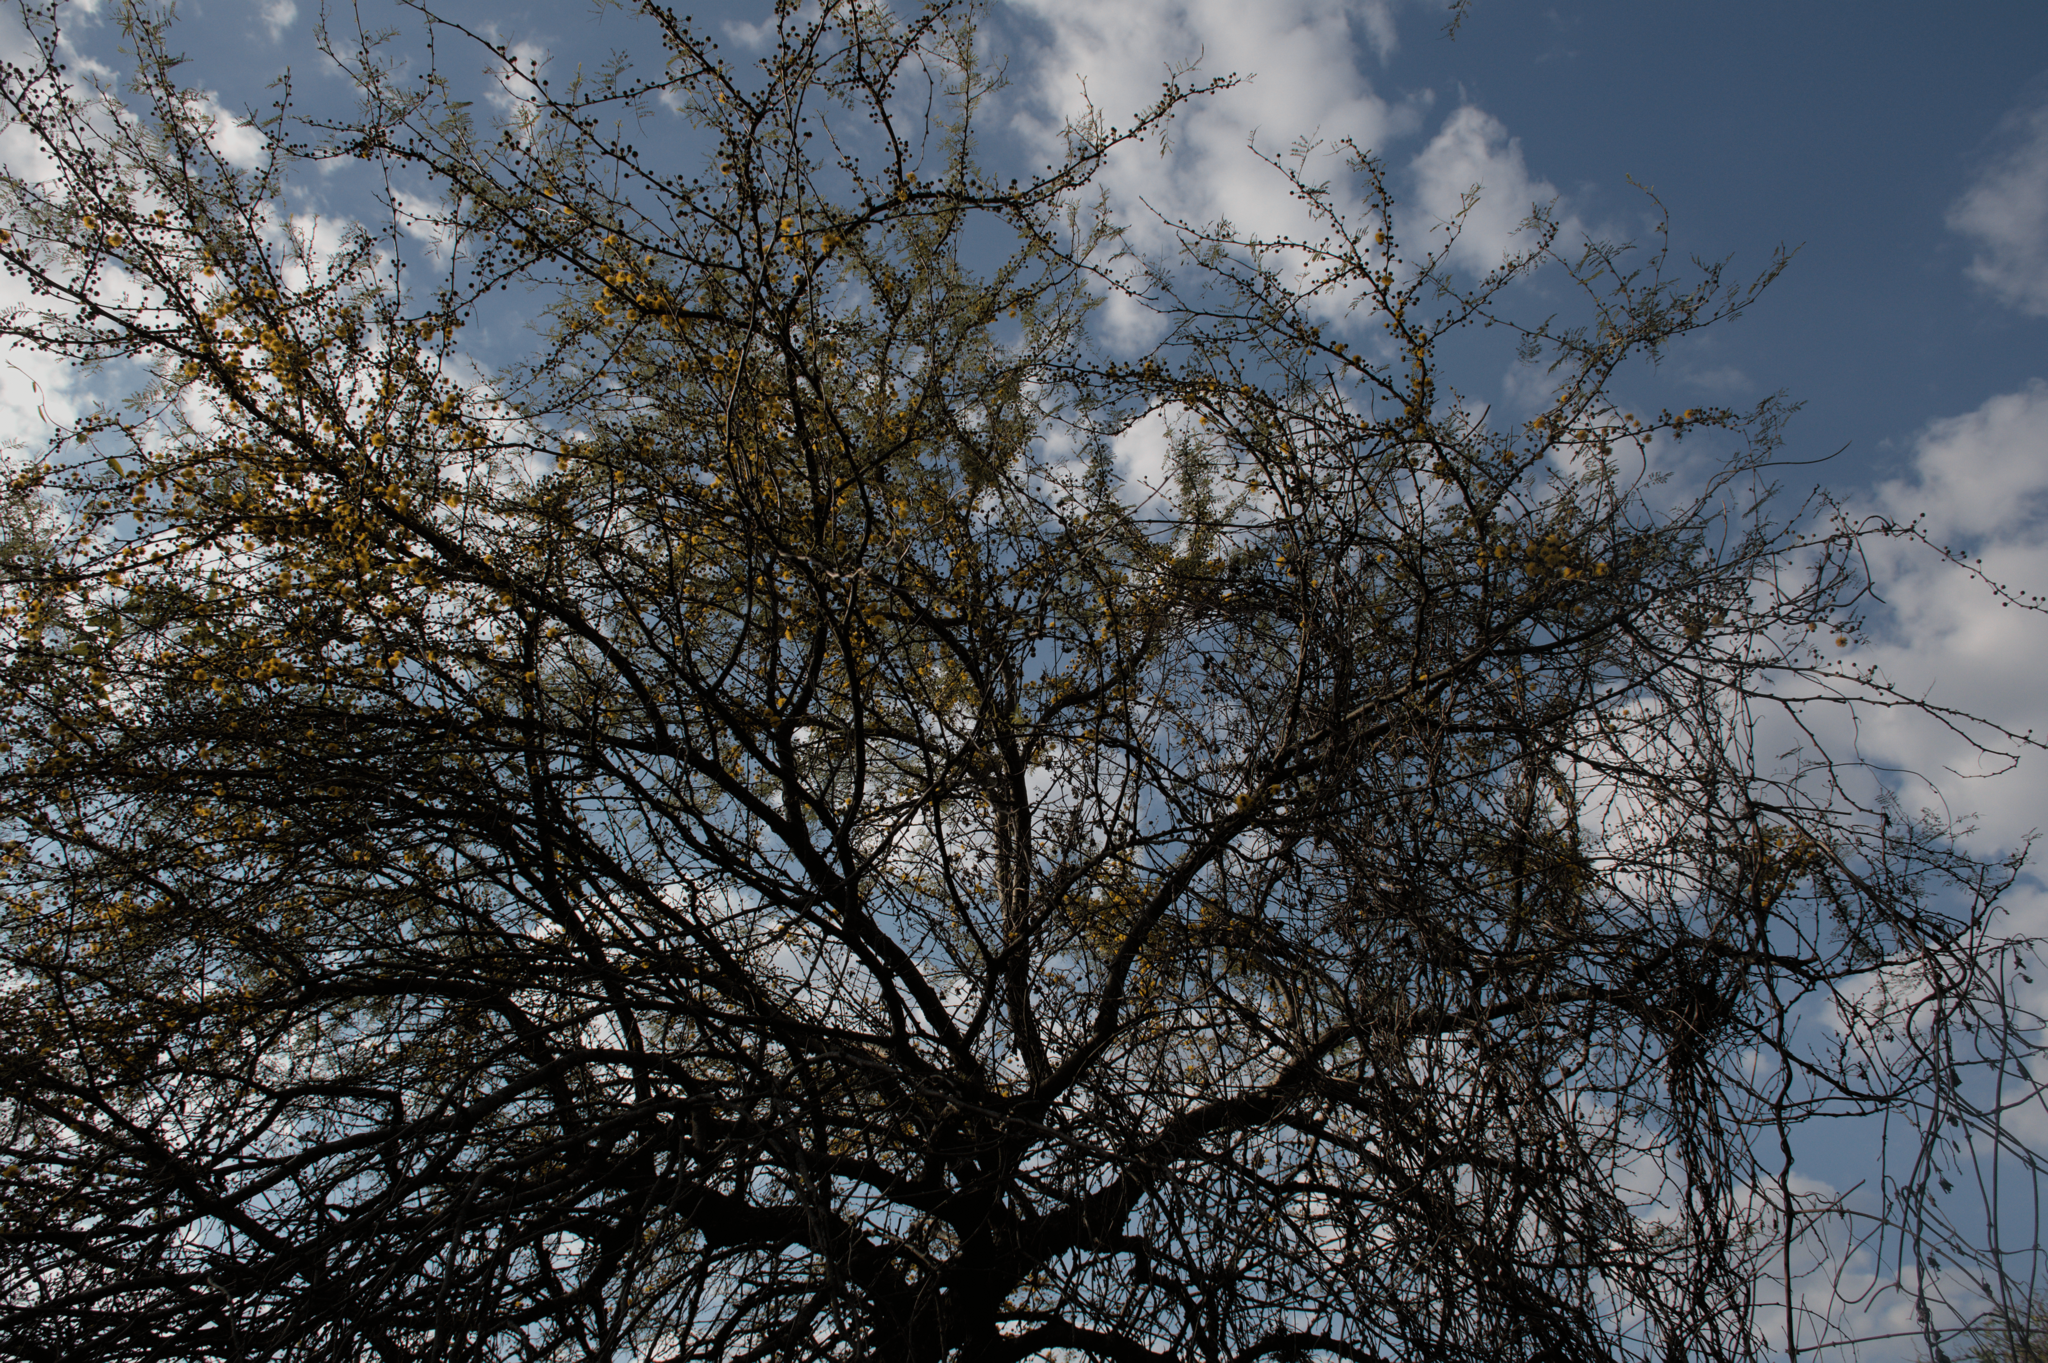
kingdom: Plantae
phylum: Tracheophyta
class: Magnoliopsida
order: Fabales
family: Fabaceae
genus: Vachellia
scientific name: Vachellia caven
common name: Roman cassie
